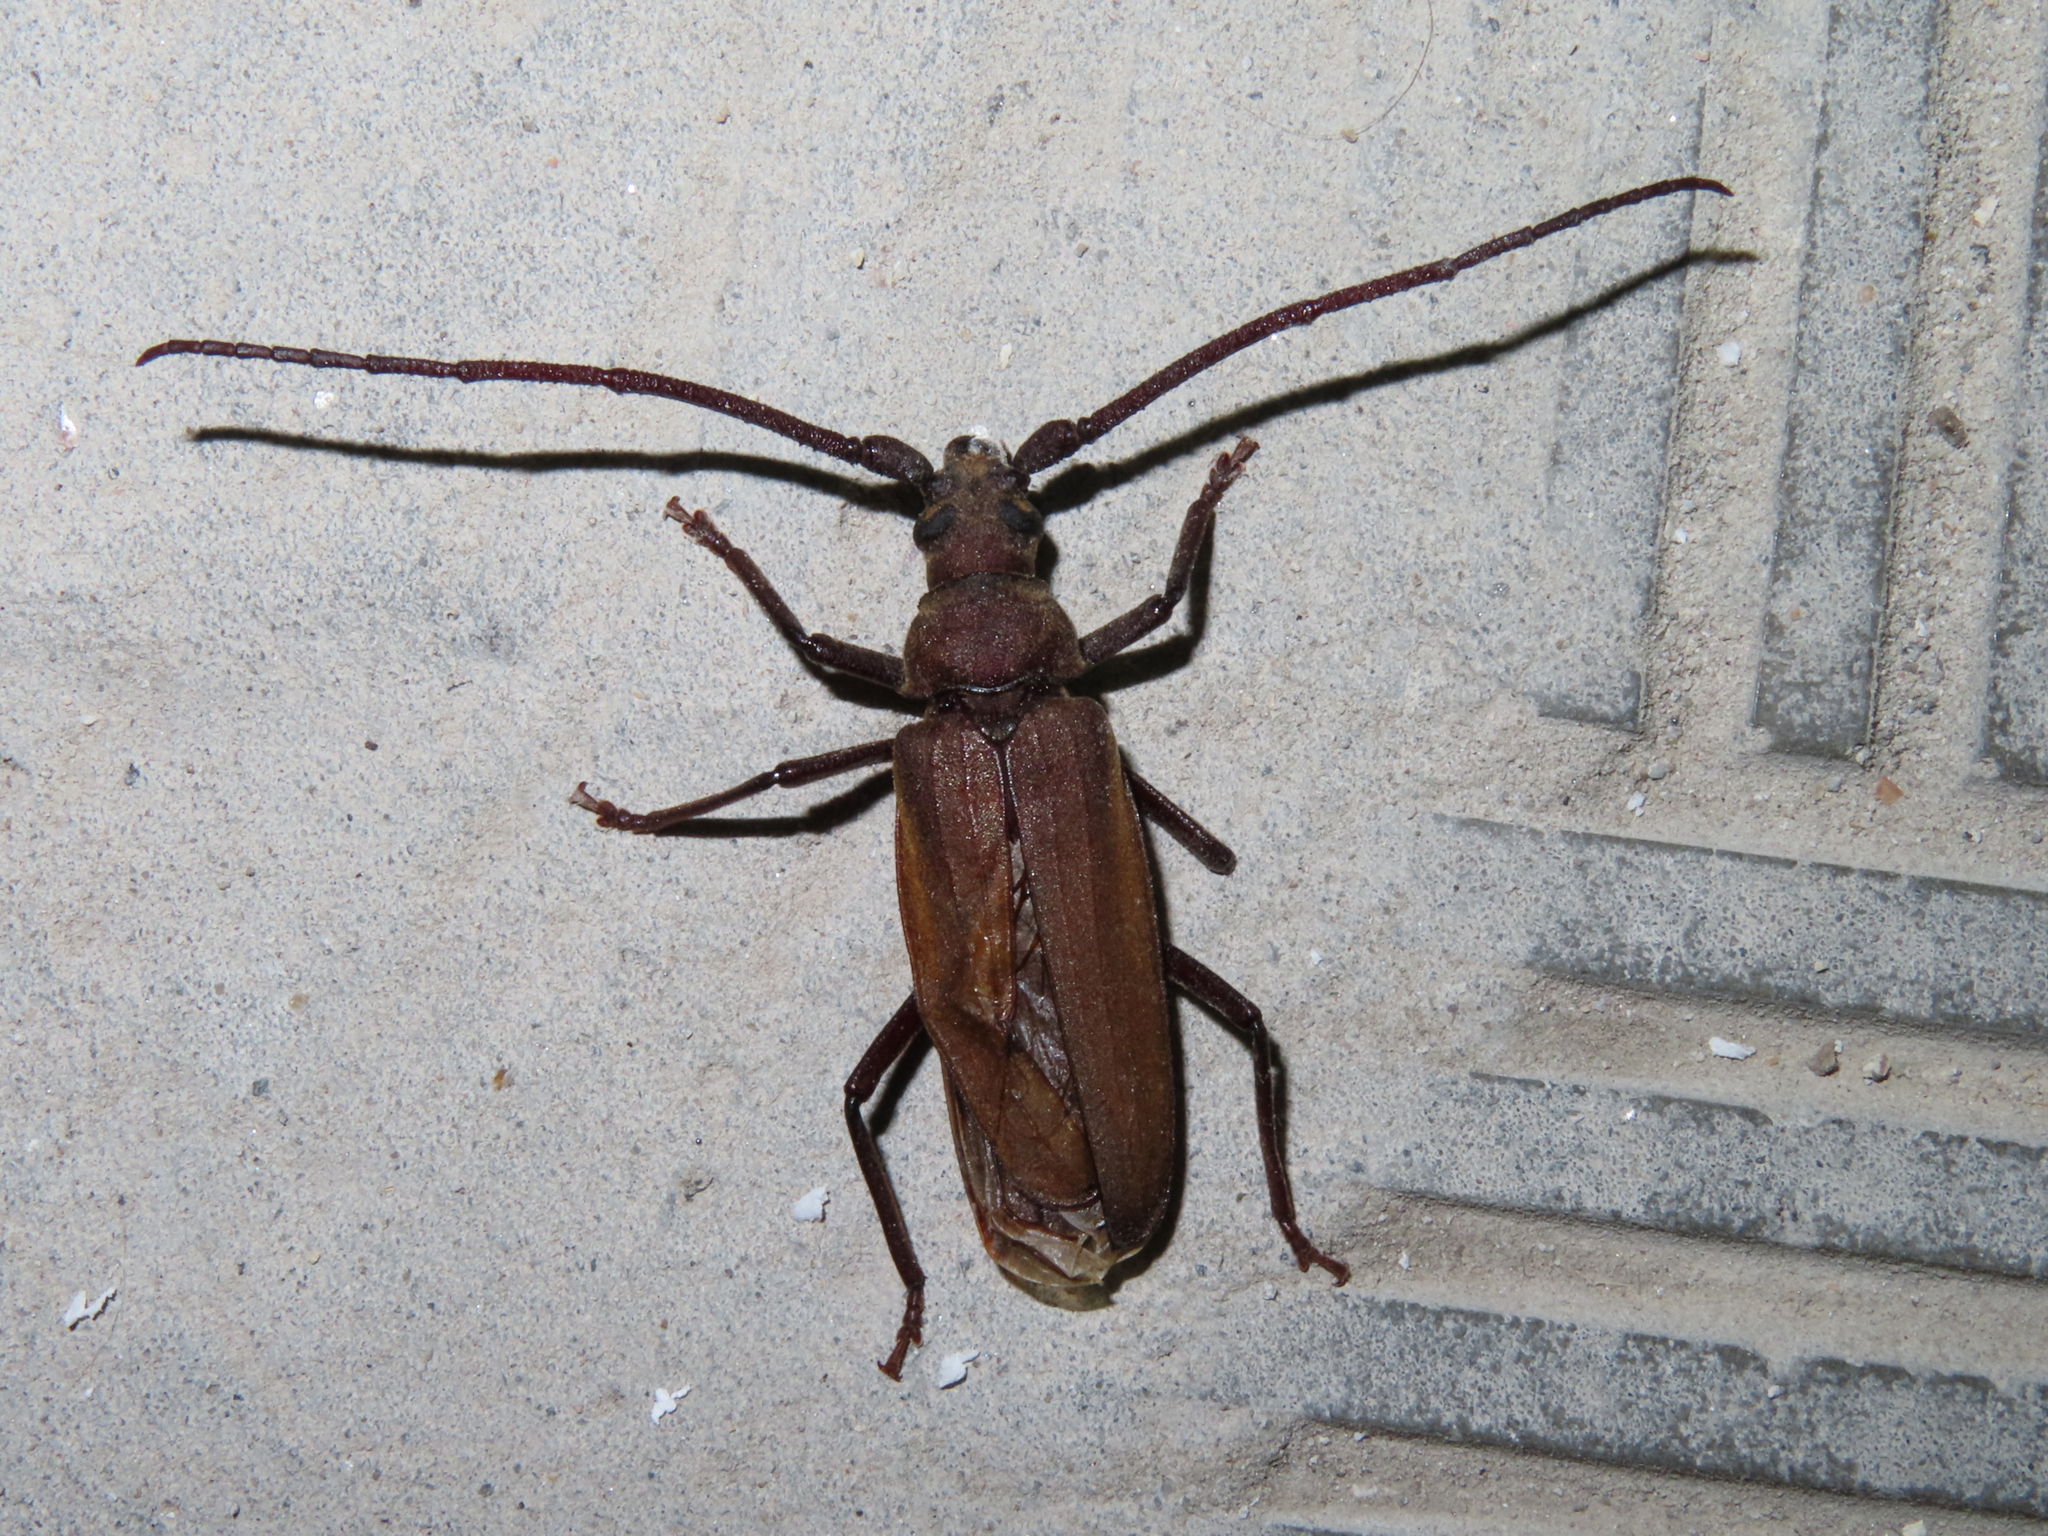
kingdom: Animalia
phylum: Arthropoda
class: Insecta
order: Coleoptera
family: Cerambycidae
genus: Aegosoma
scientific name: Aegosoma scabricorne
